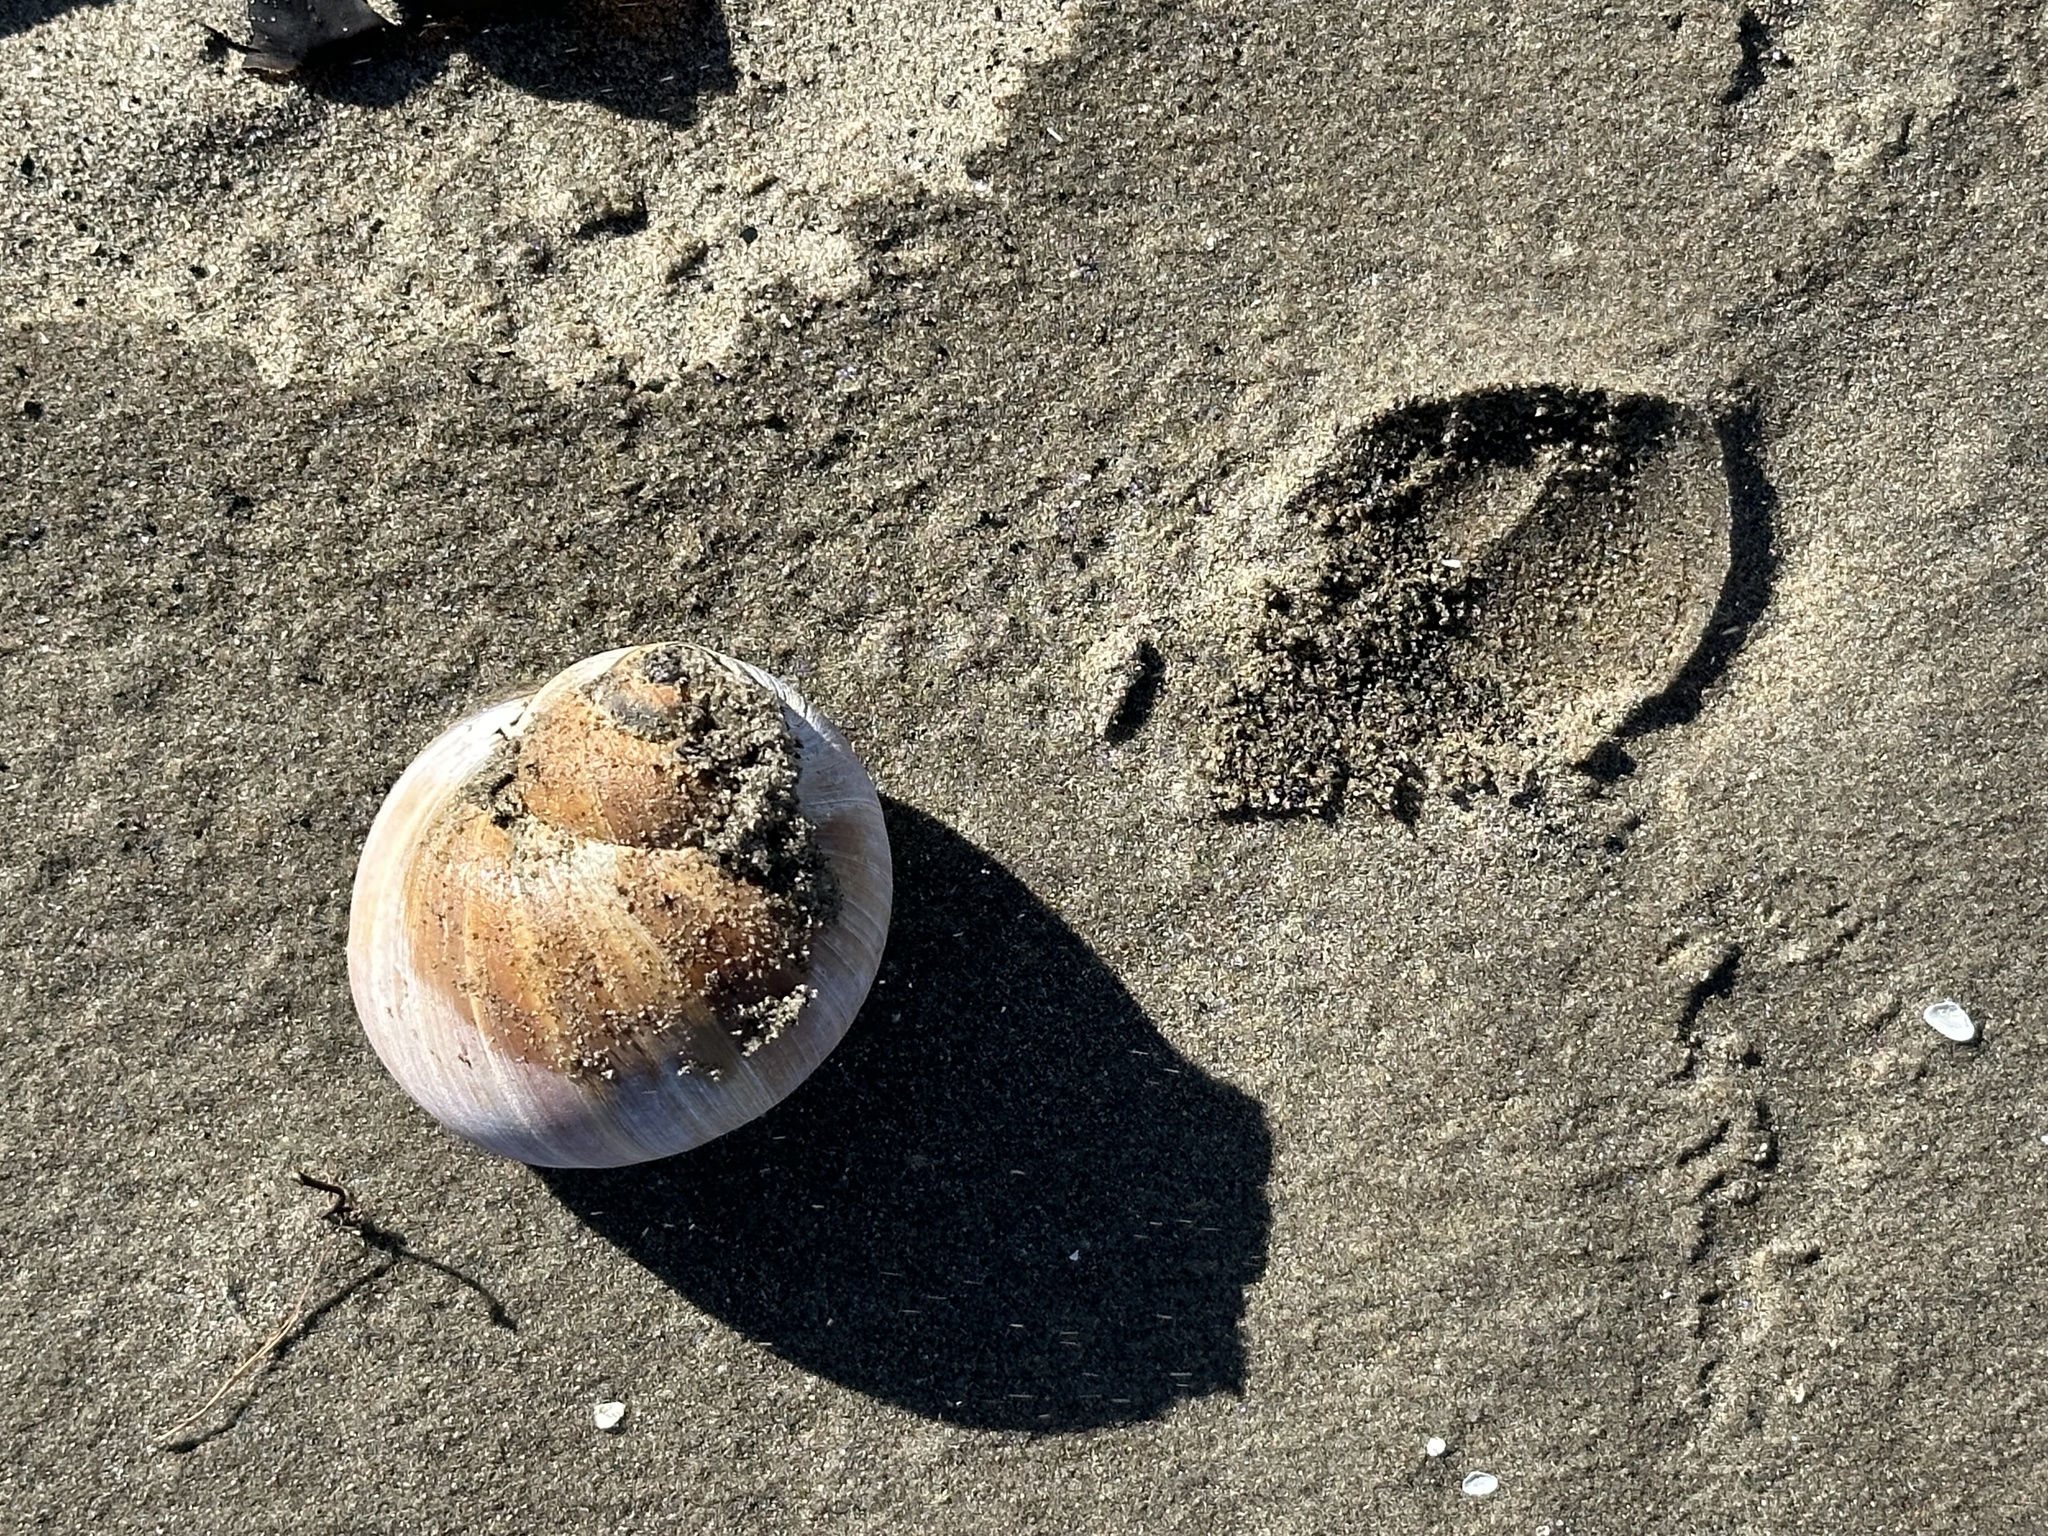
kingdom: Animalia
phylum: Mollusca
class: Gastropoda
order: Littorinimorpha
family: Naticidae
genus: Euspira
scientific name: Euspira heros
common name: Common northern moonsnail
